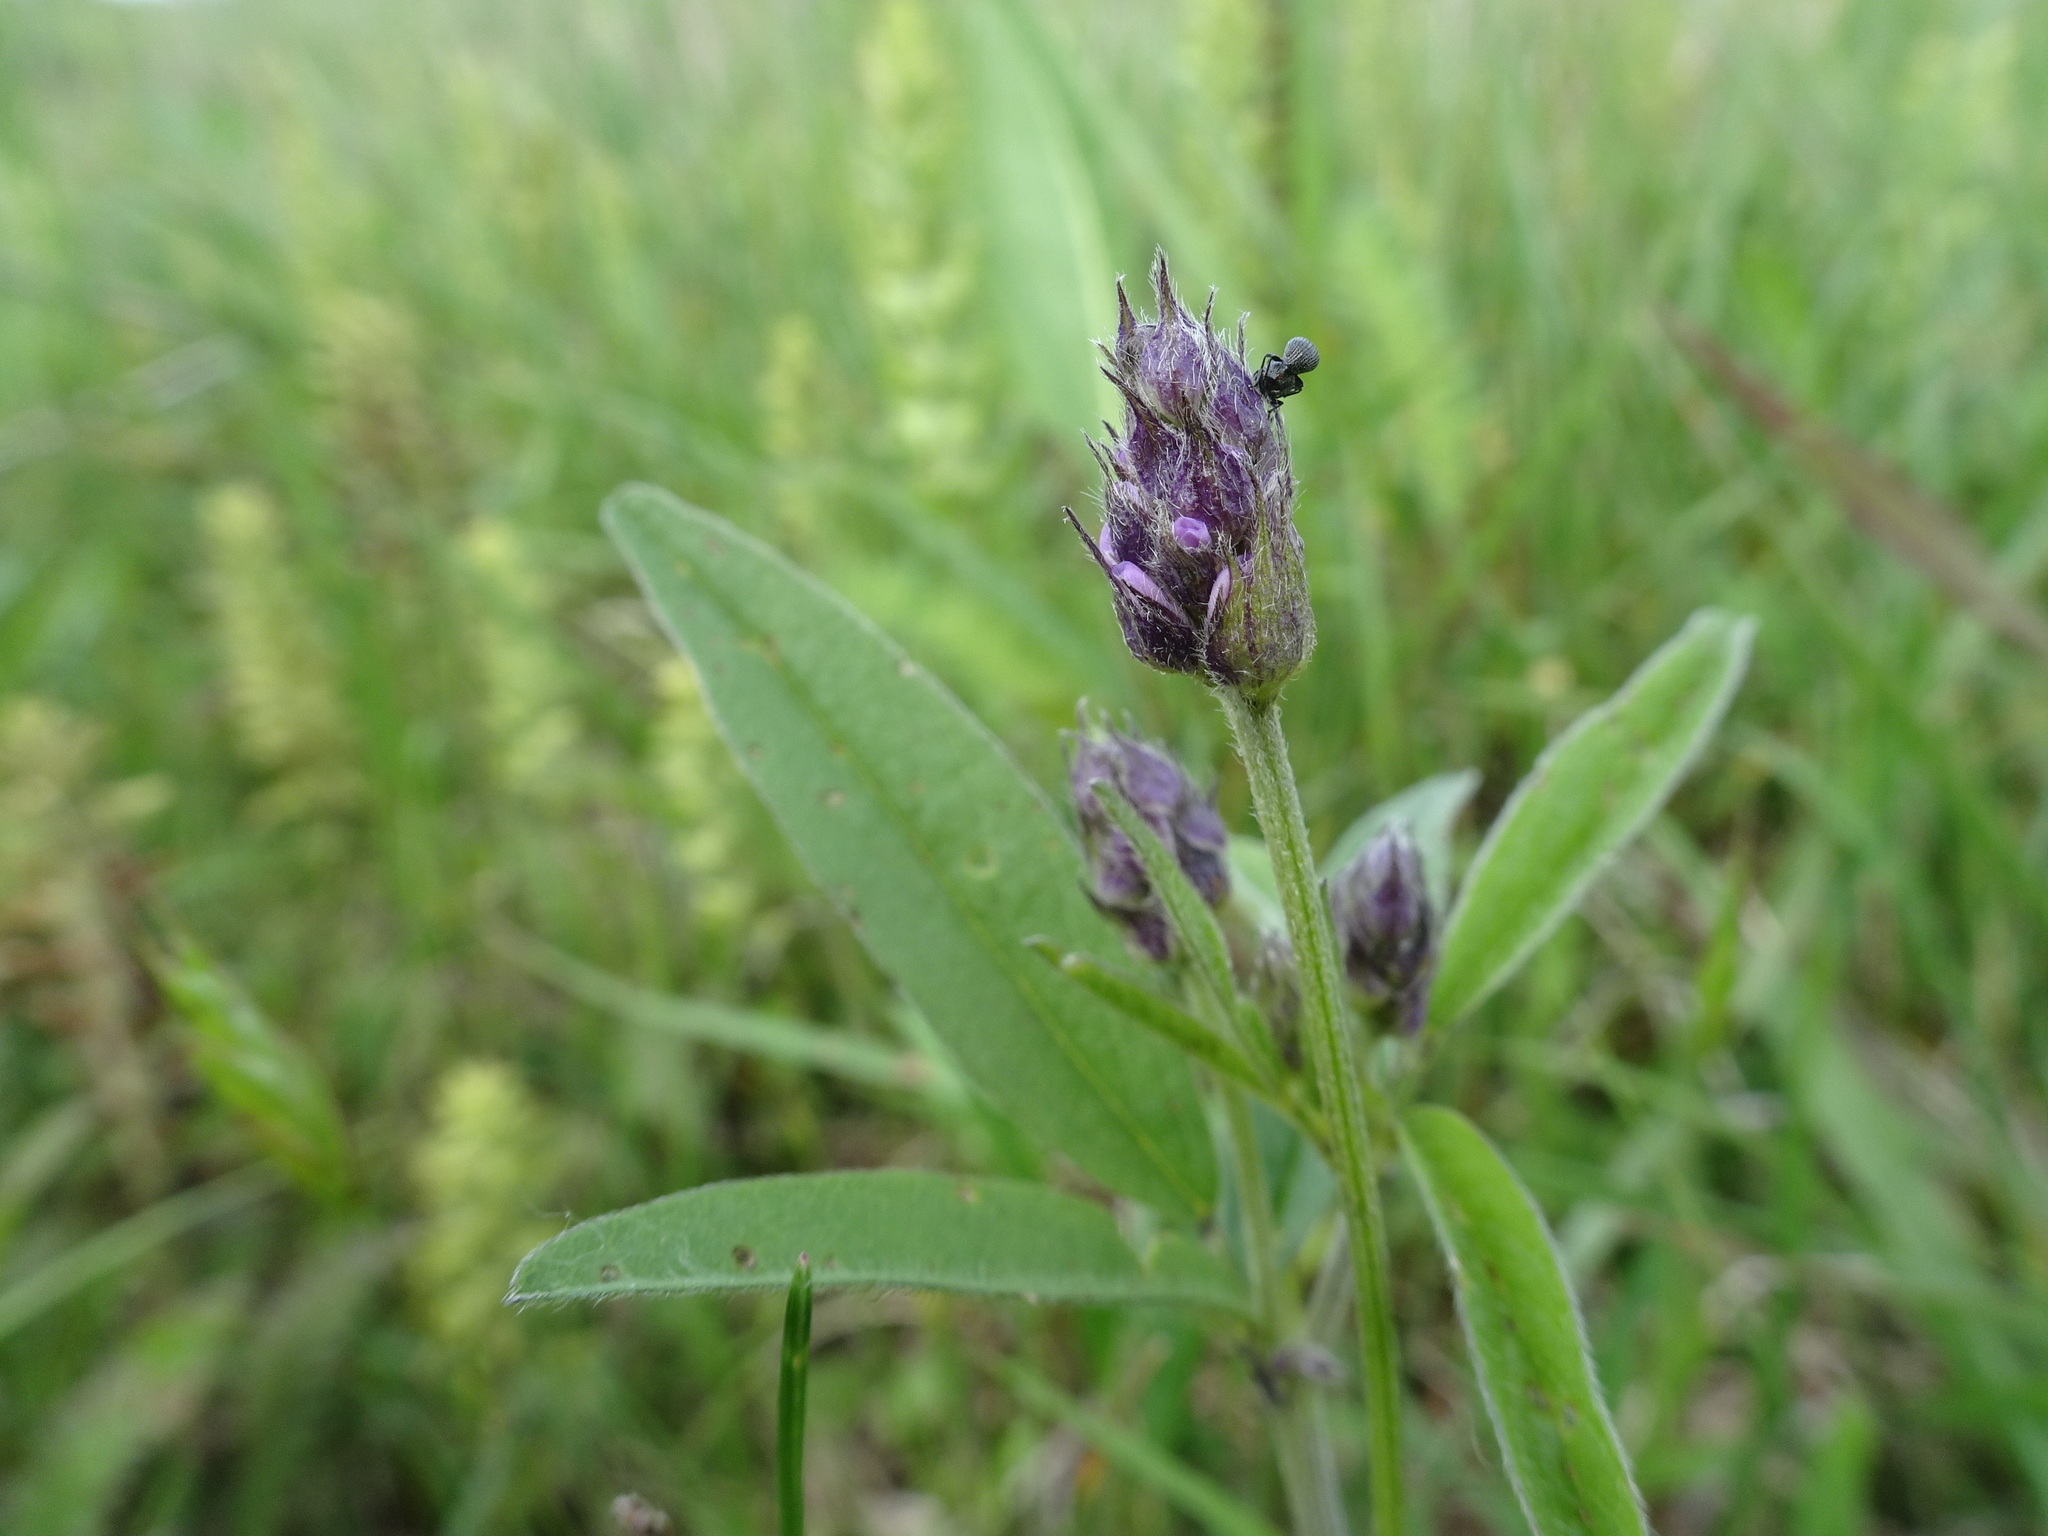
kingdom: Plantae
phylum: Tracheophyta
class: Magnoliopsida
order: Fabales
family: Fabaceae
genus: Orbexilum
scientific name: Orbexilum pedunculatum
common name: Sampson's snakeroot
